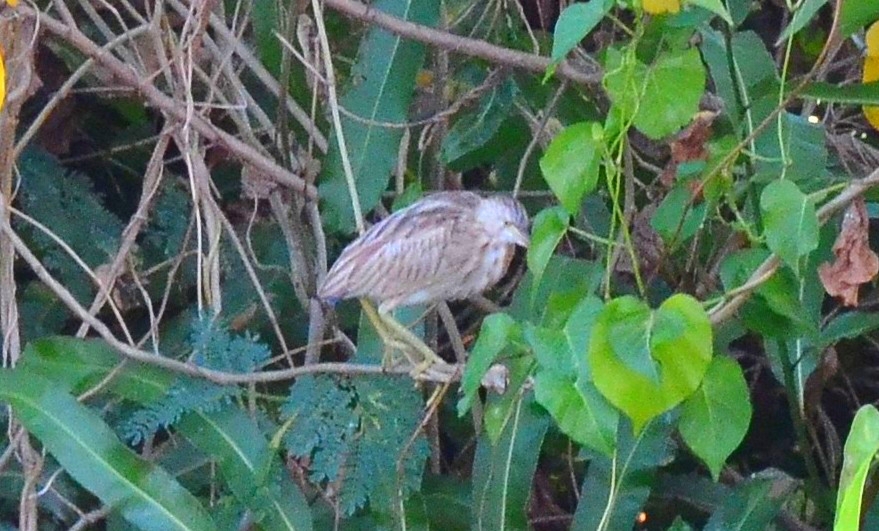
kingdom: Animalia
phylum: Chordata
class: Aves
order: Pelecaniformes
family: Ardeidae
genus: Ixobrychus
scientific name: Ixobrychus sinensis
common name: Yellow bittern
